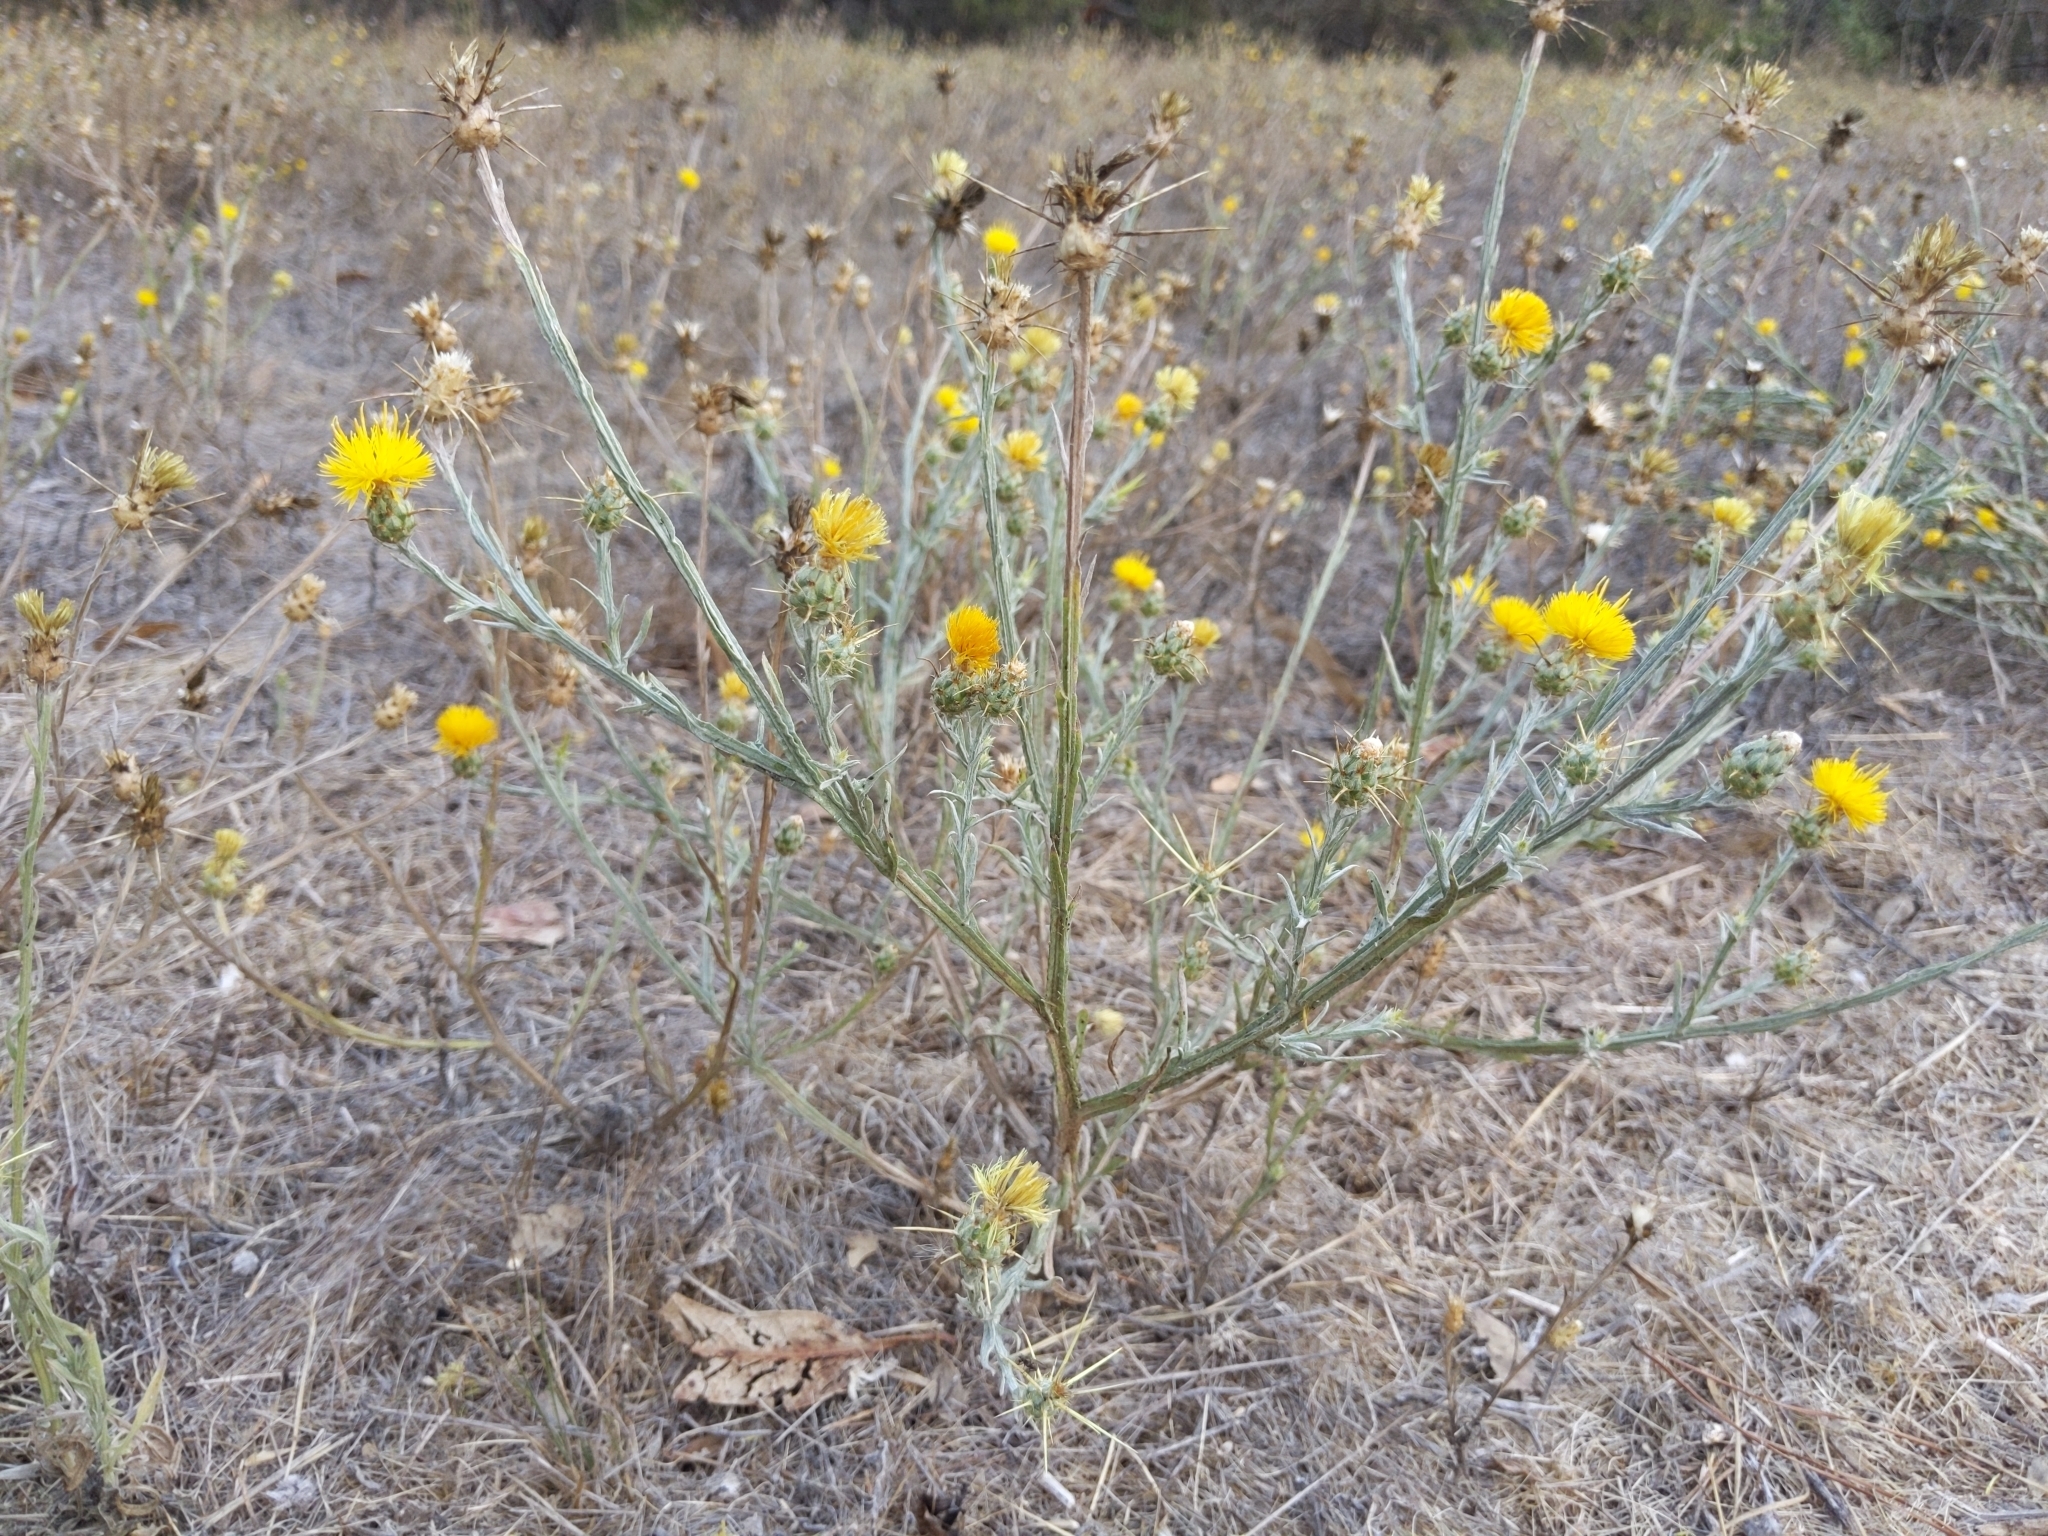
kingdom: Plantae
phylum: Tracheophyta
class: Magnoliopsida
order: Asterales
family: Asteraceae
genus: Centaurea
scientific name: Centaurea solstitialis
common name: Yellow star-thistle
